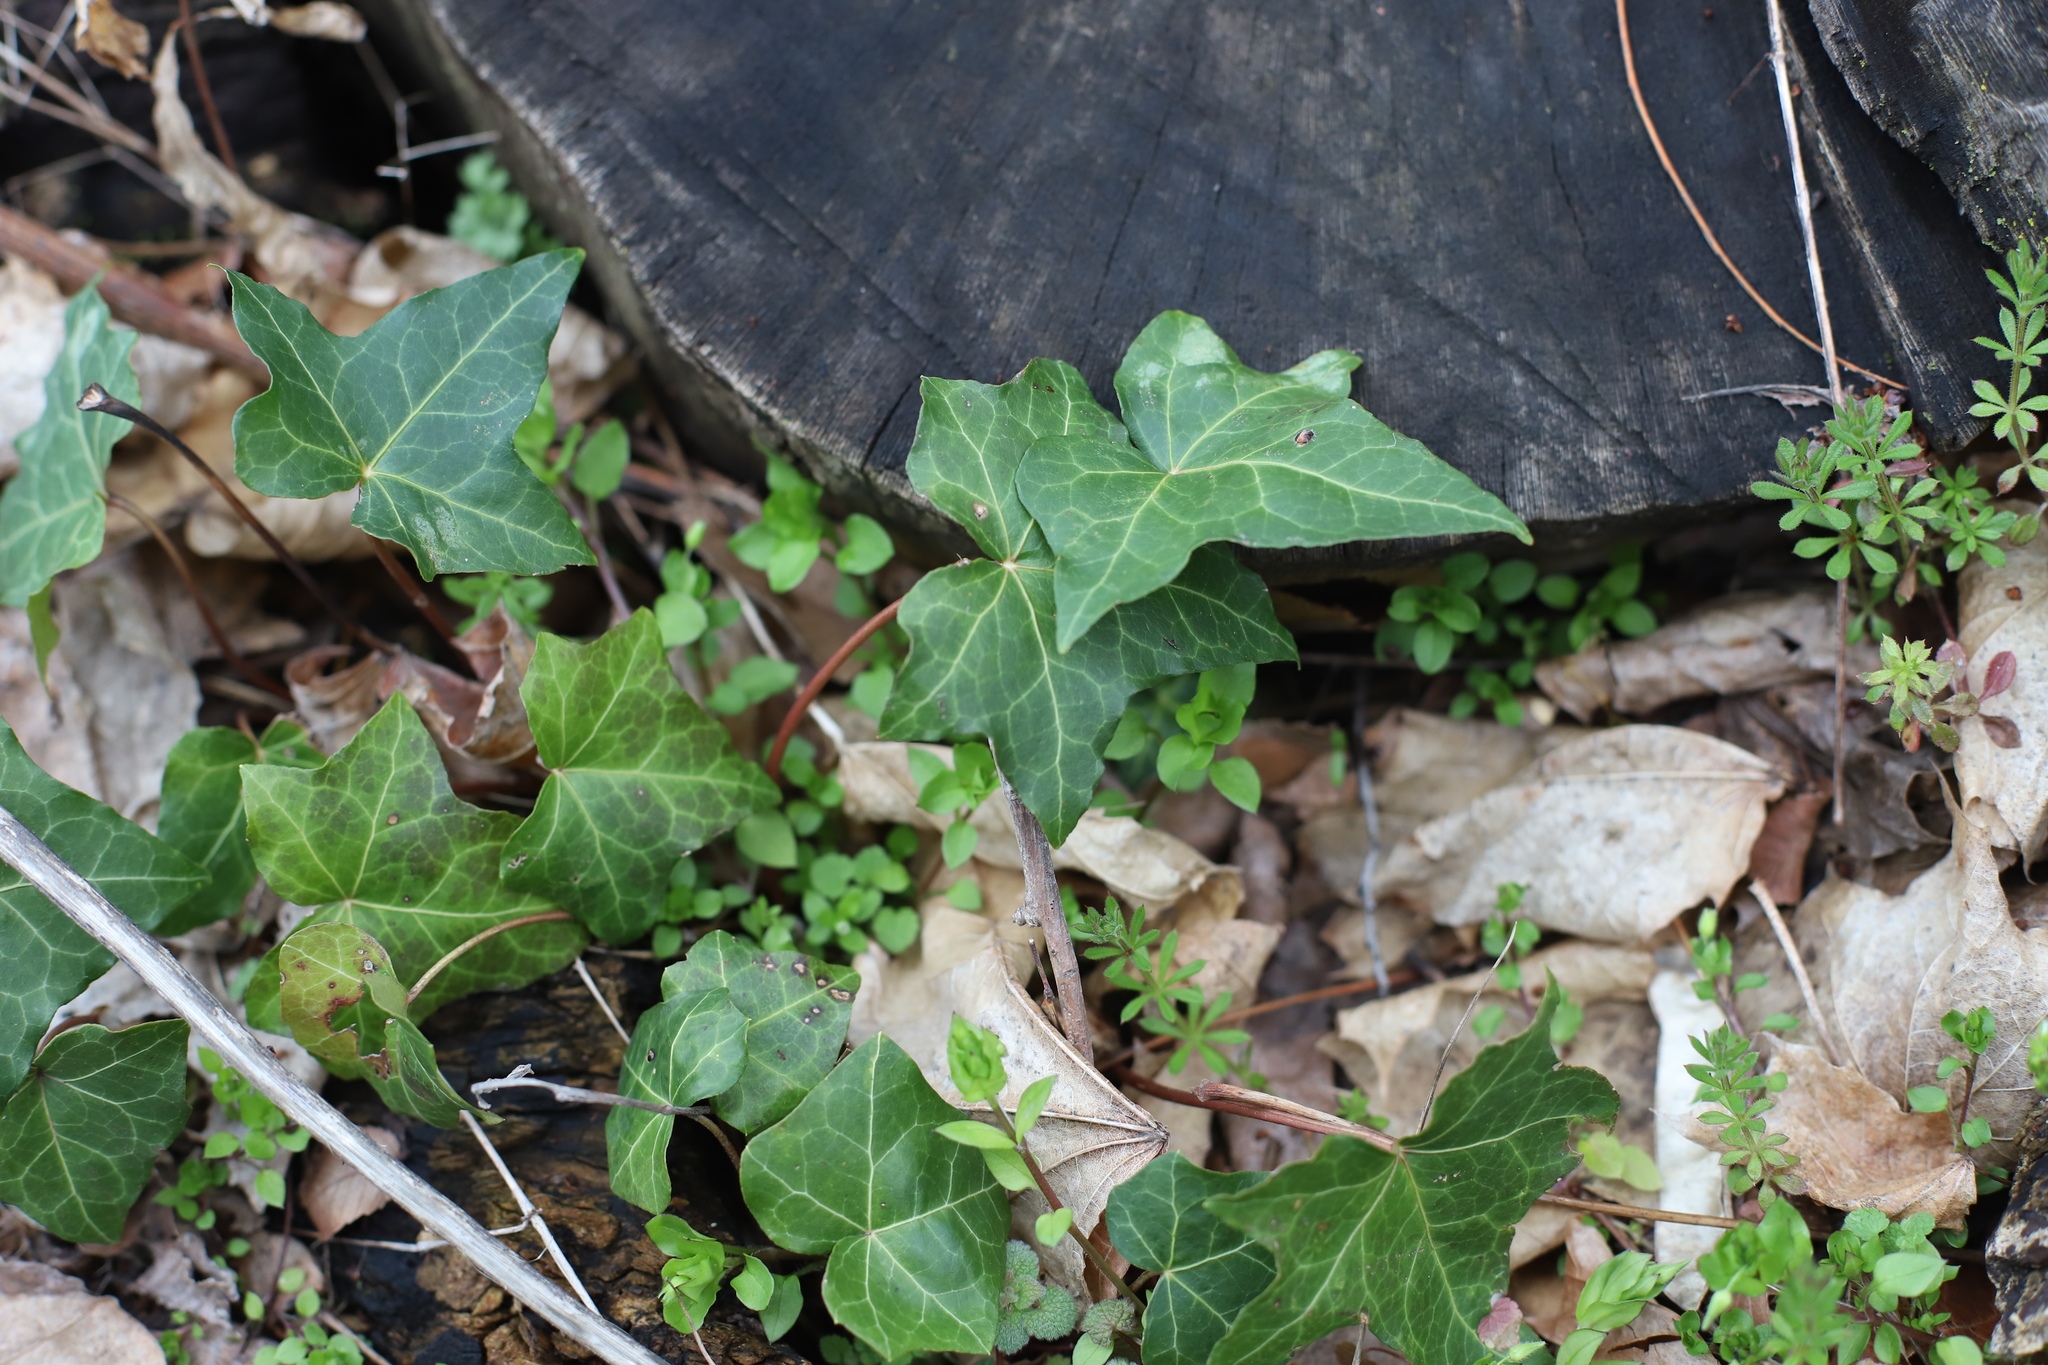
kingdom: Plantae
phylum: Tracheophyta
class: Magnoliopsida
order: Apiales
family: Araliaceae
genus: Hedera
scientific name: Hedera helix
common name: Ivy
